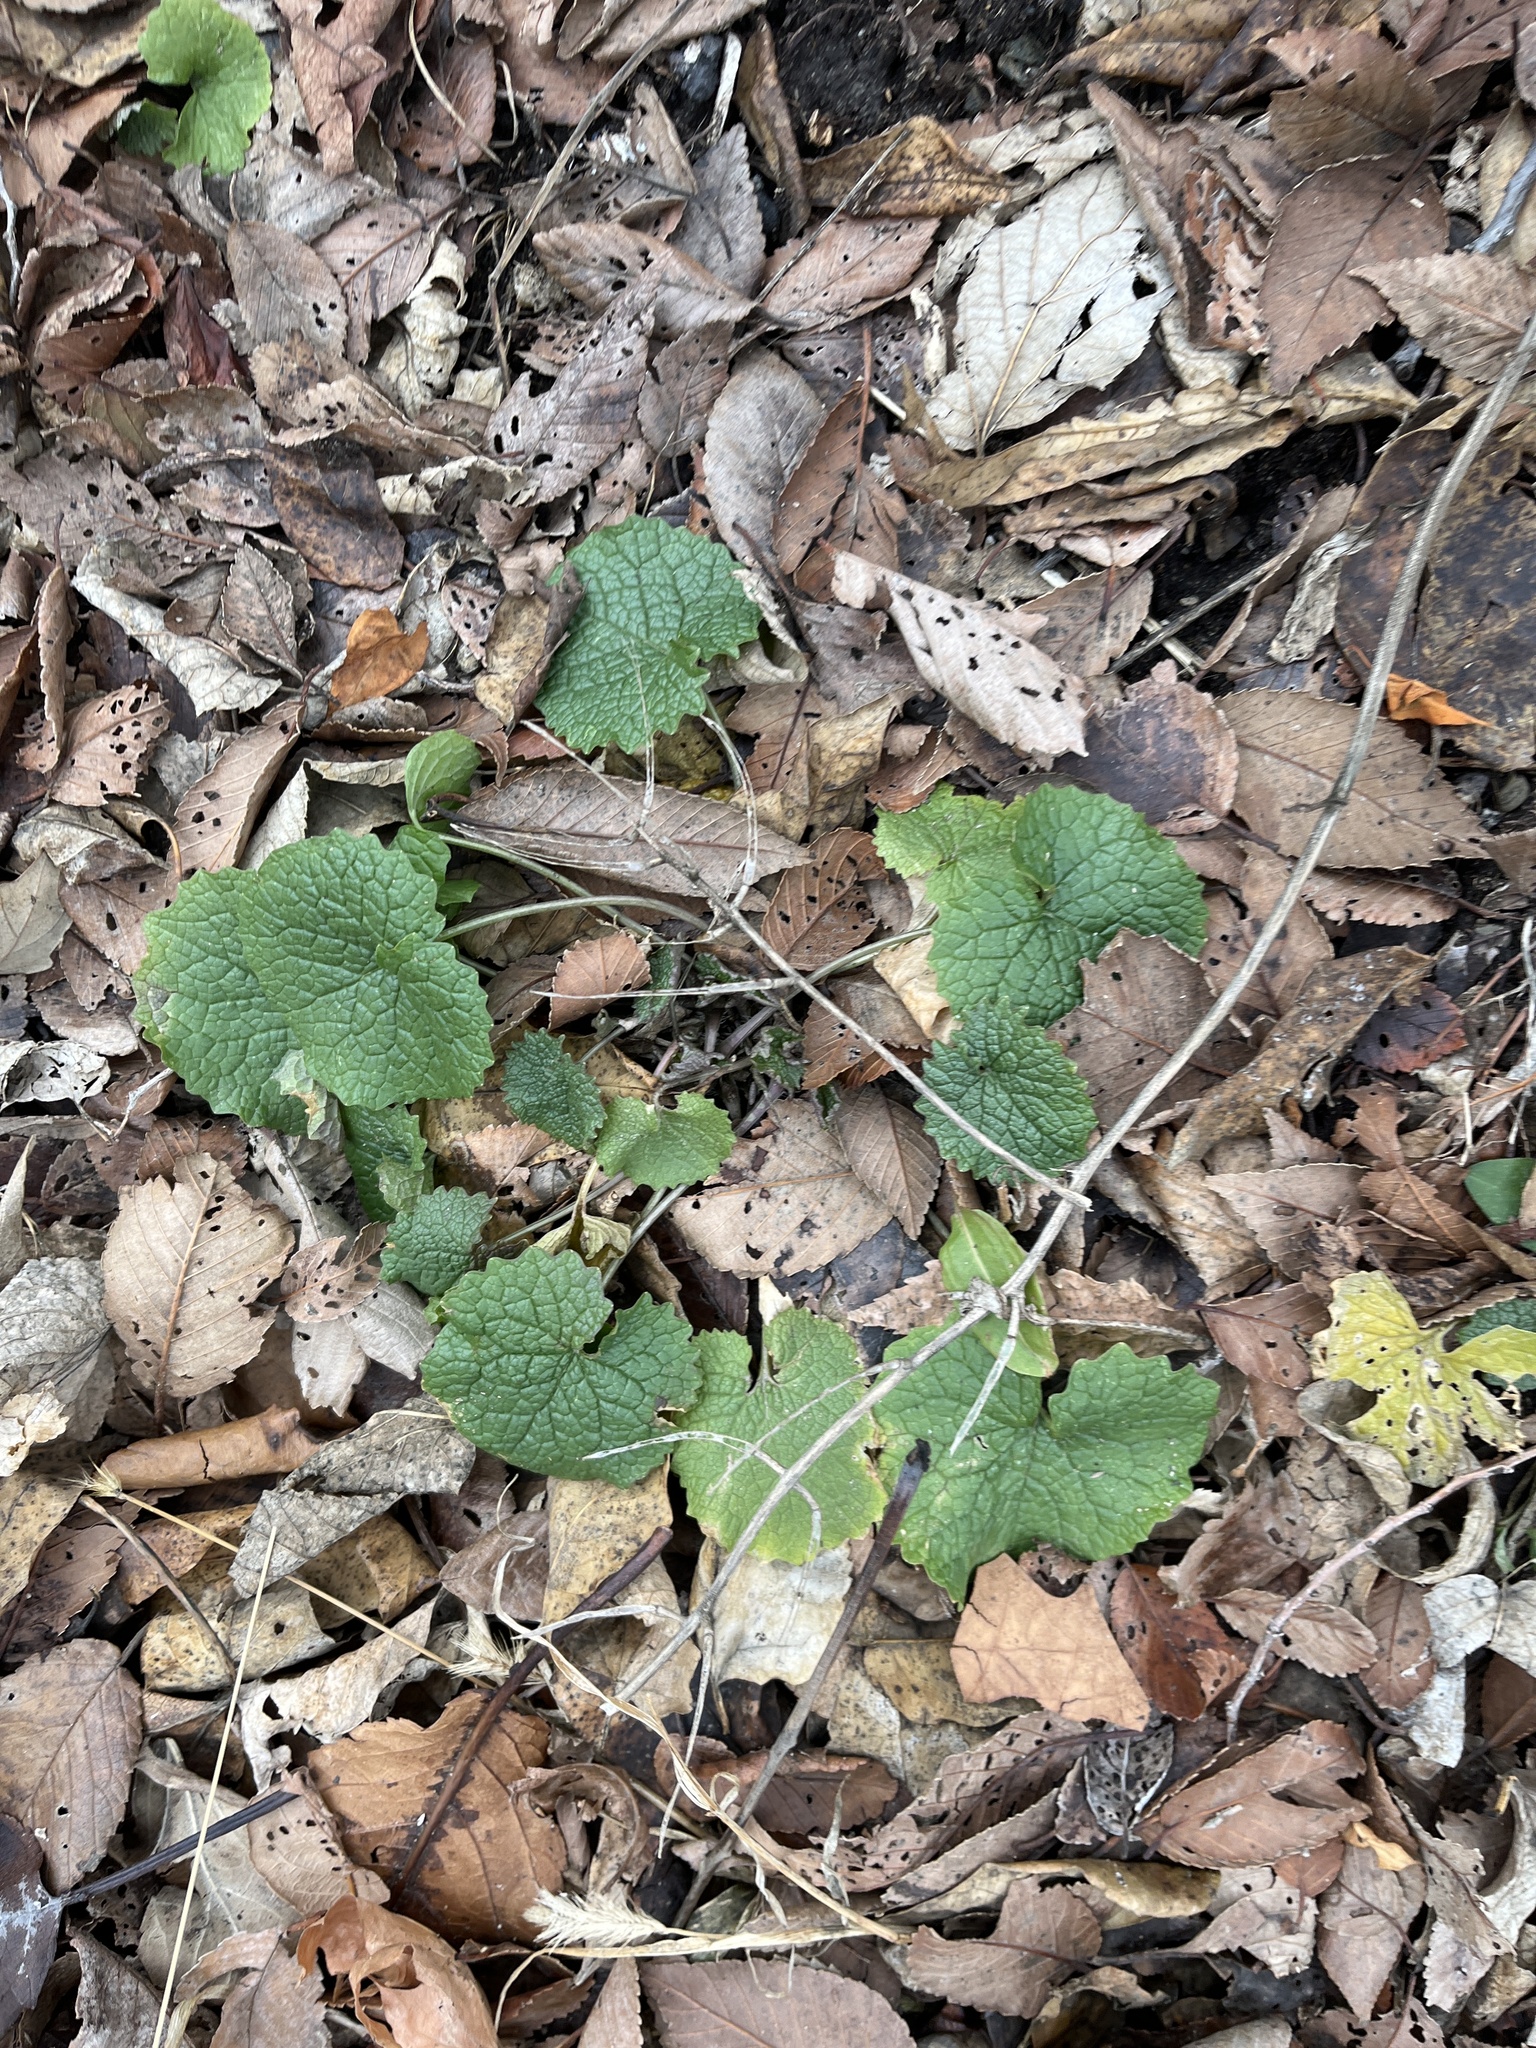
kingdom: Plantae
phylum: Tracheophyta
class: Magnoliopsida
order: Lamiales
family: Lamiaceae
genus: Glechoma
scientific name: Glechoma hederacea
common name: Ground ivy
